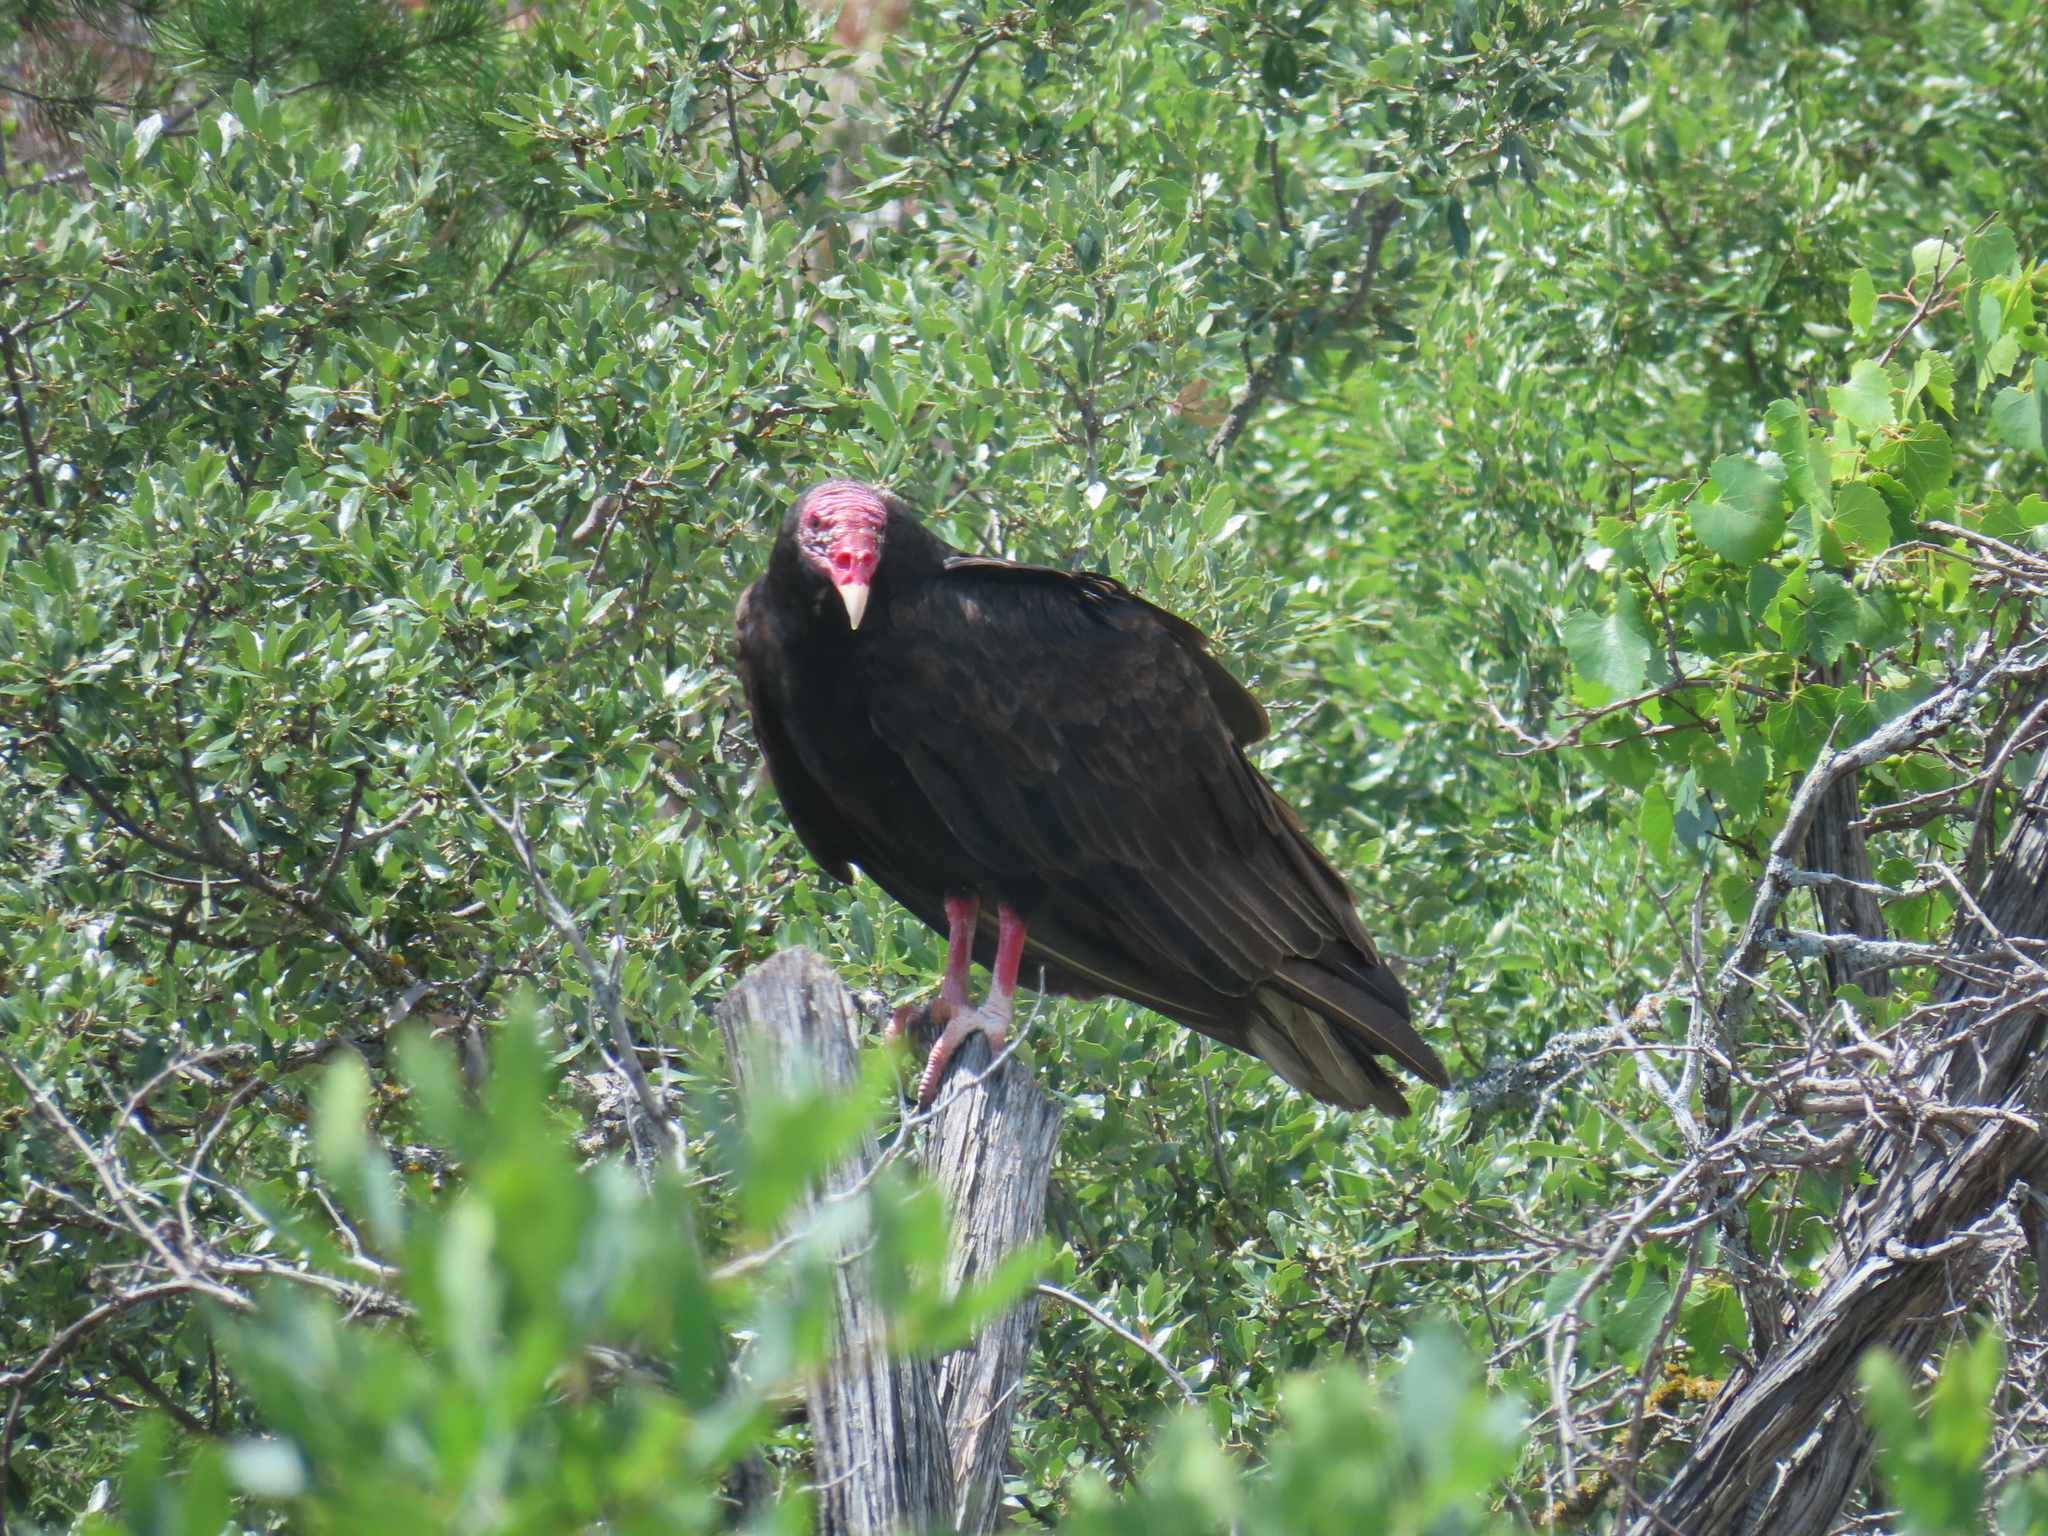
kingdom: Animalia
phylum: Chordata
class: Aves
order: Accipitriformes
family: Cathartidae
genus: Cathartes
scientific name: Cathartes aura
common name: Turkey vulture
